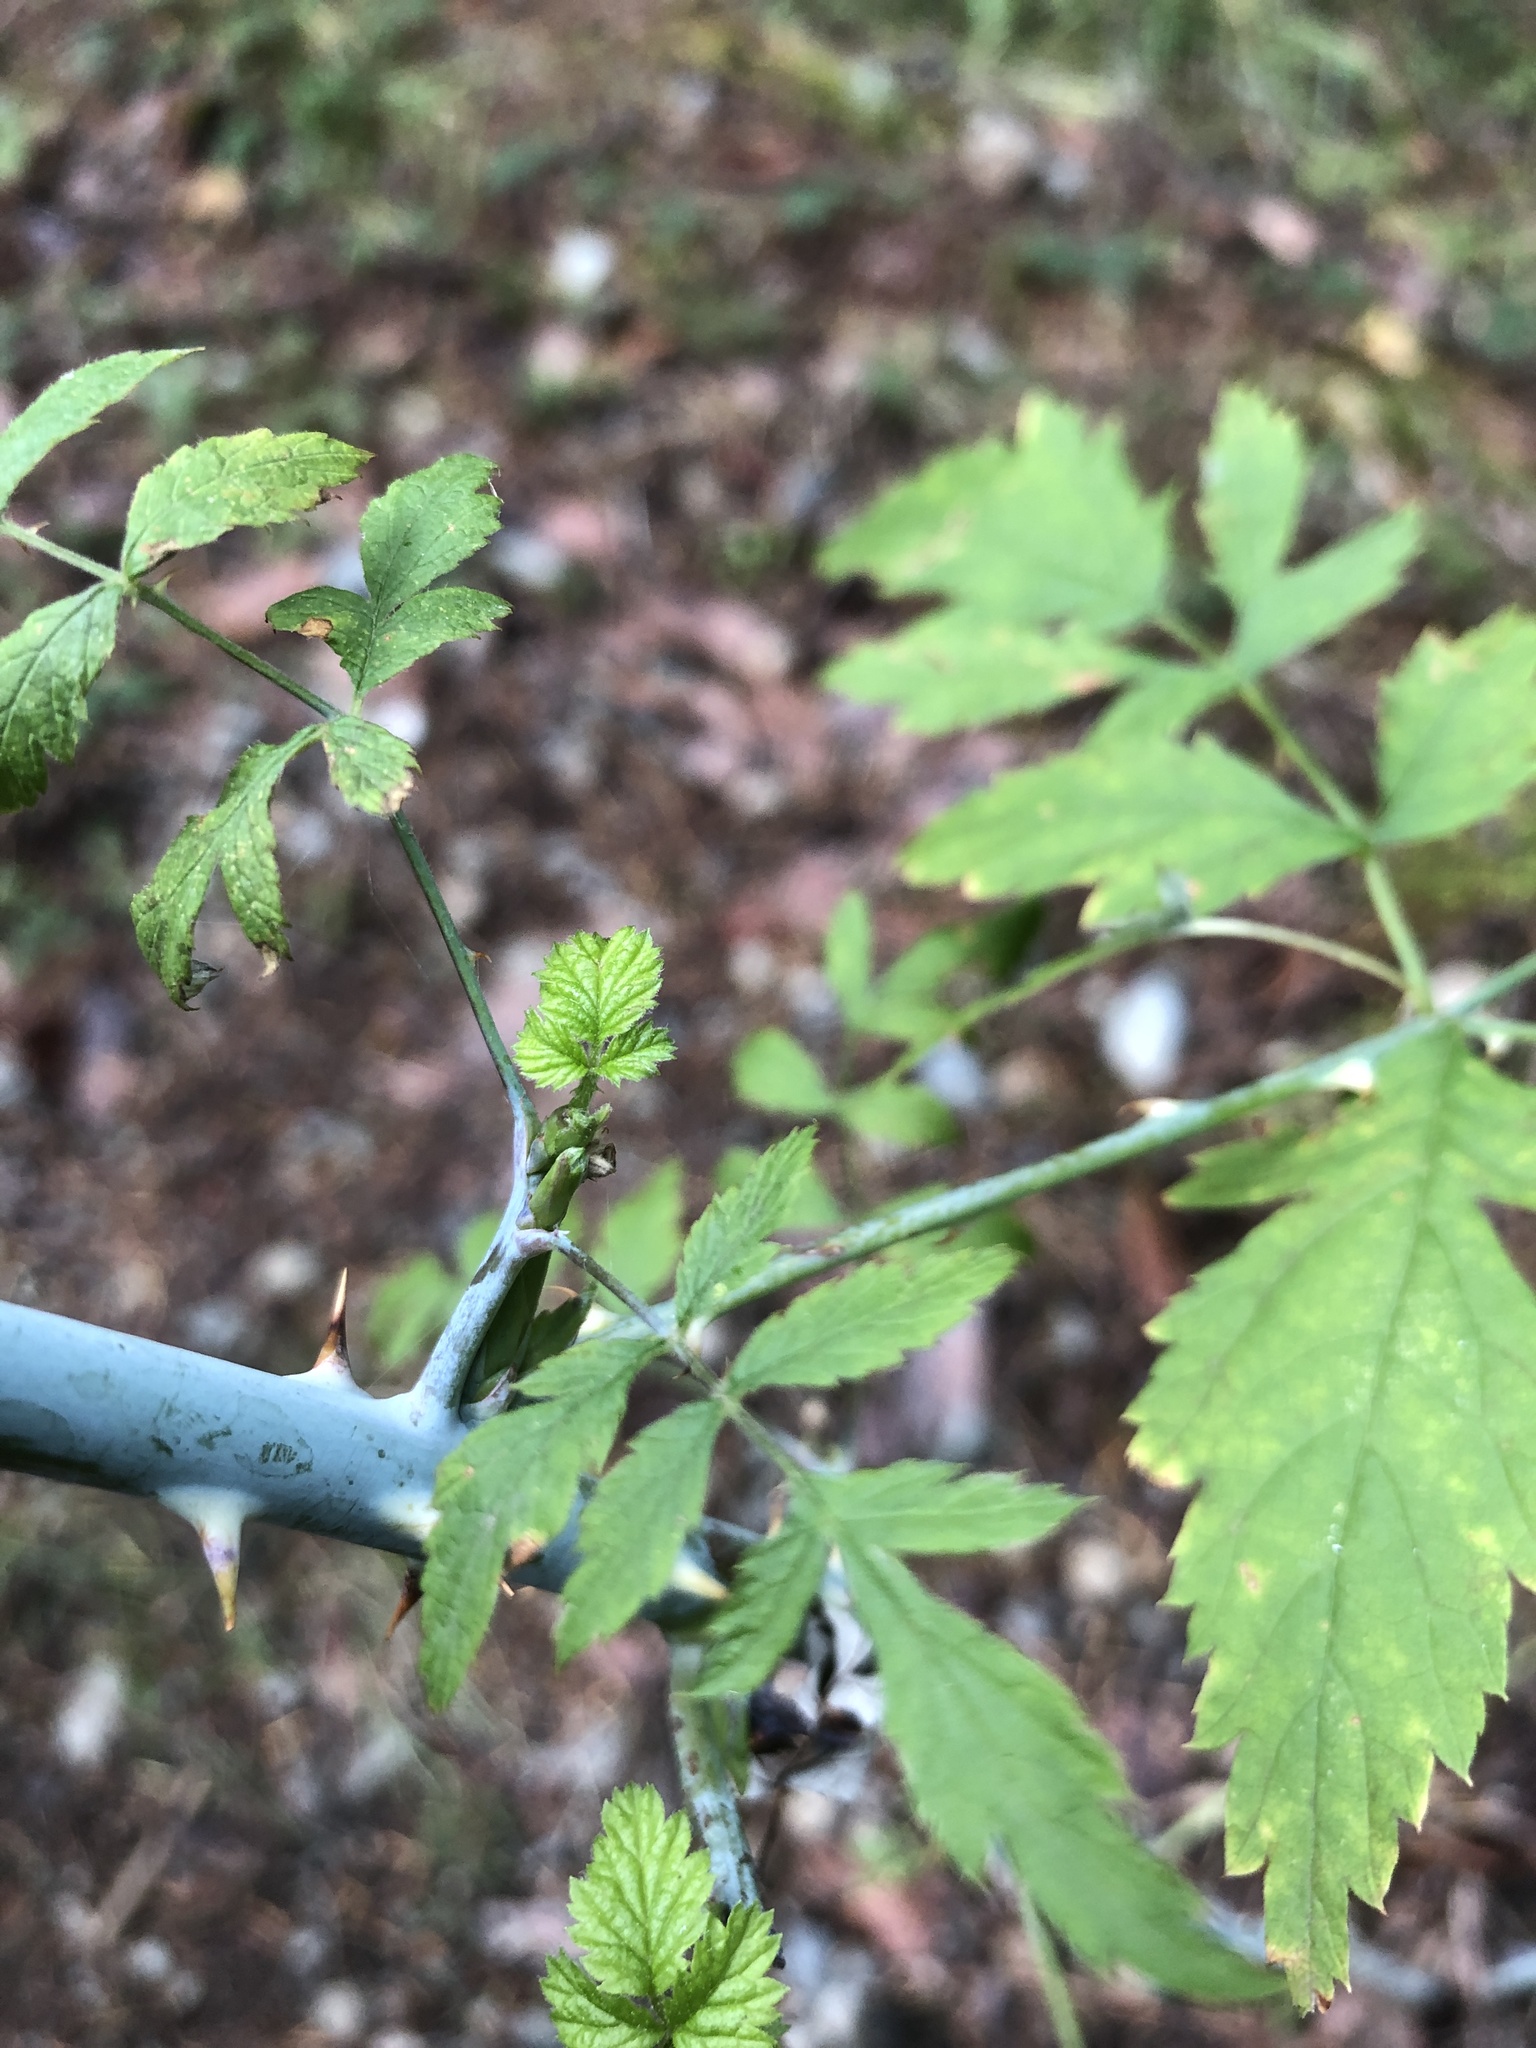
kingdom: Plantae
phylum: Tracheophyta
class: Magnoliopsida
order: Rosales
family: Rosaceae
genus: Rubus
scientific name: Rubus leucodermis
